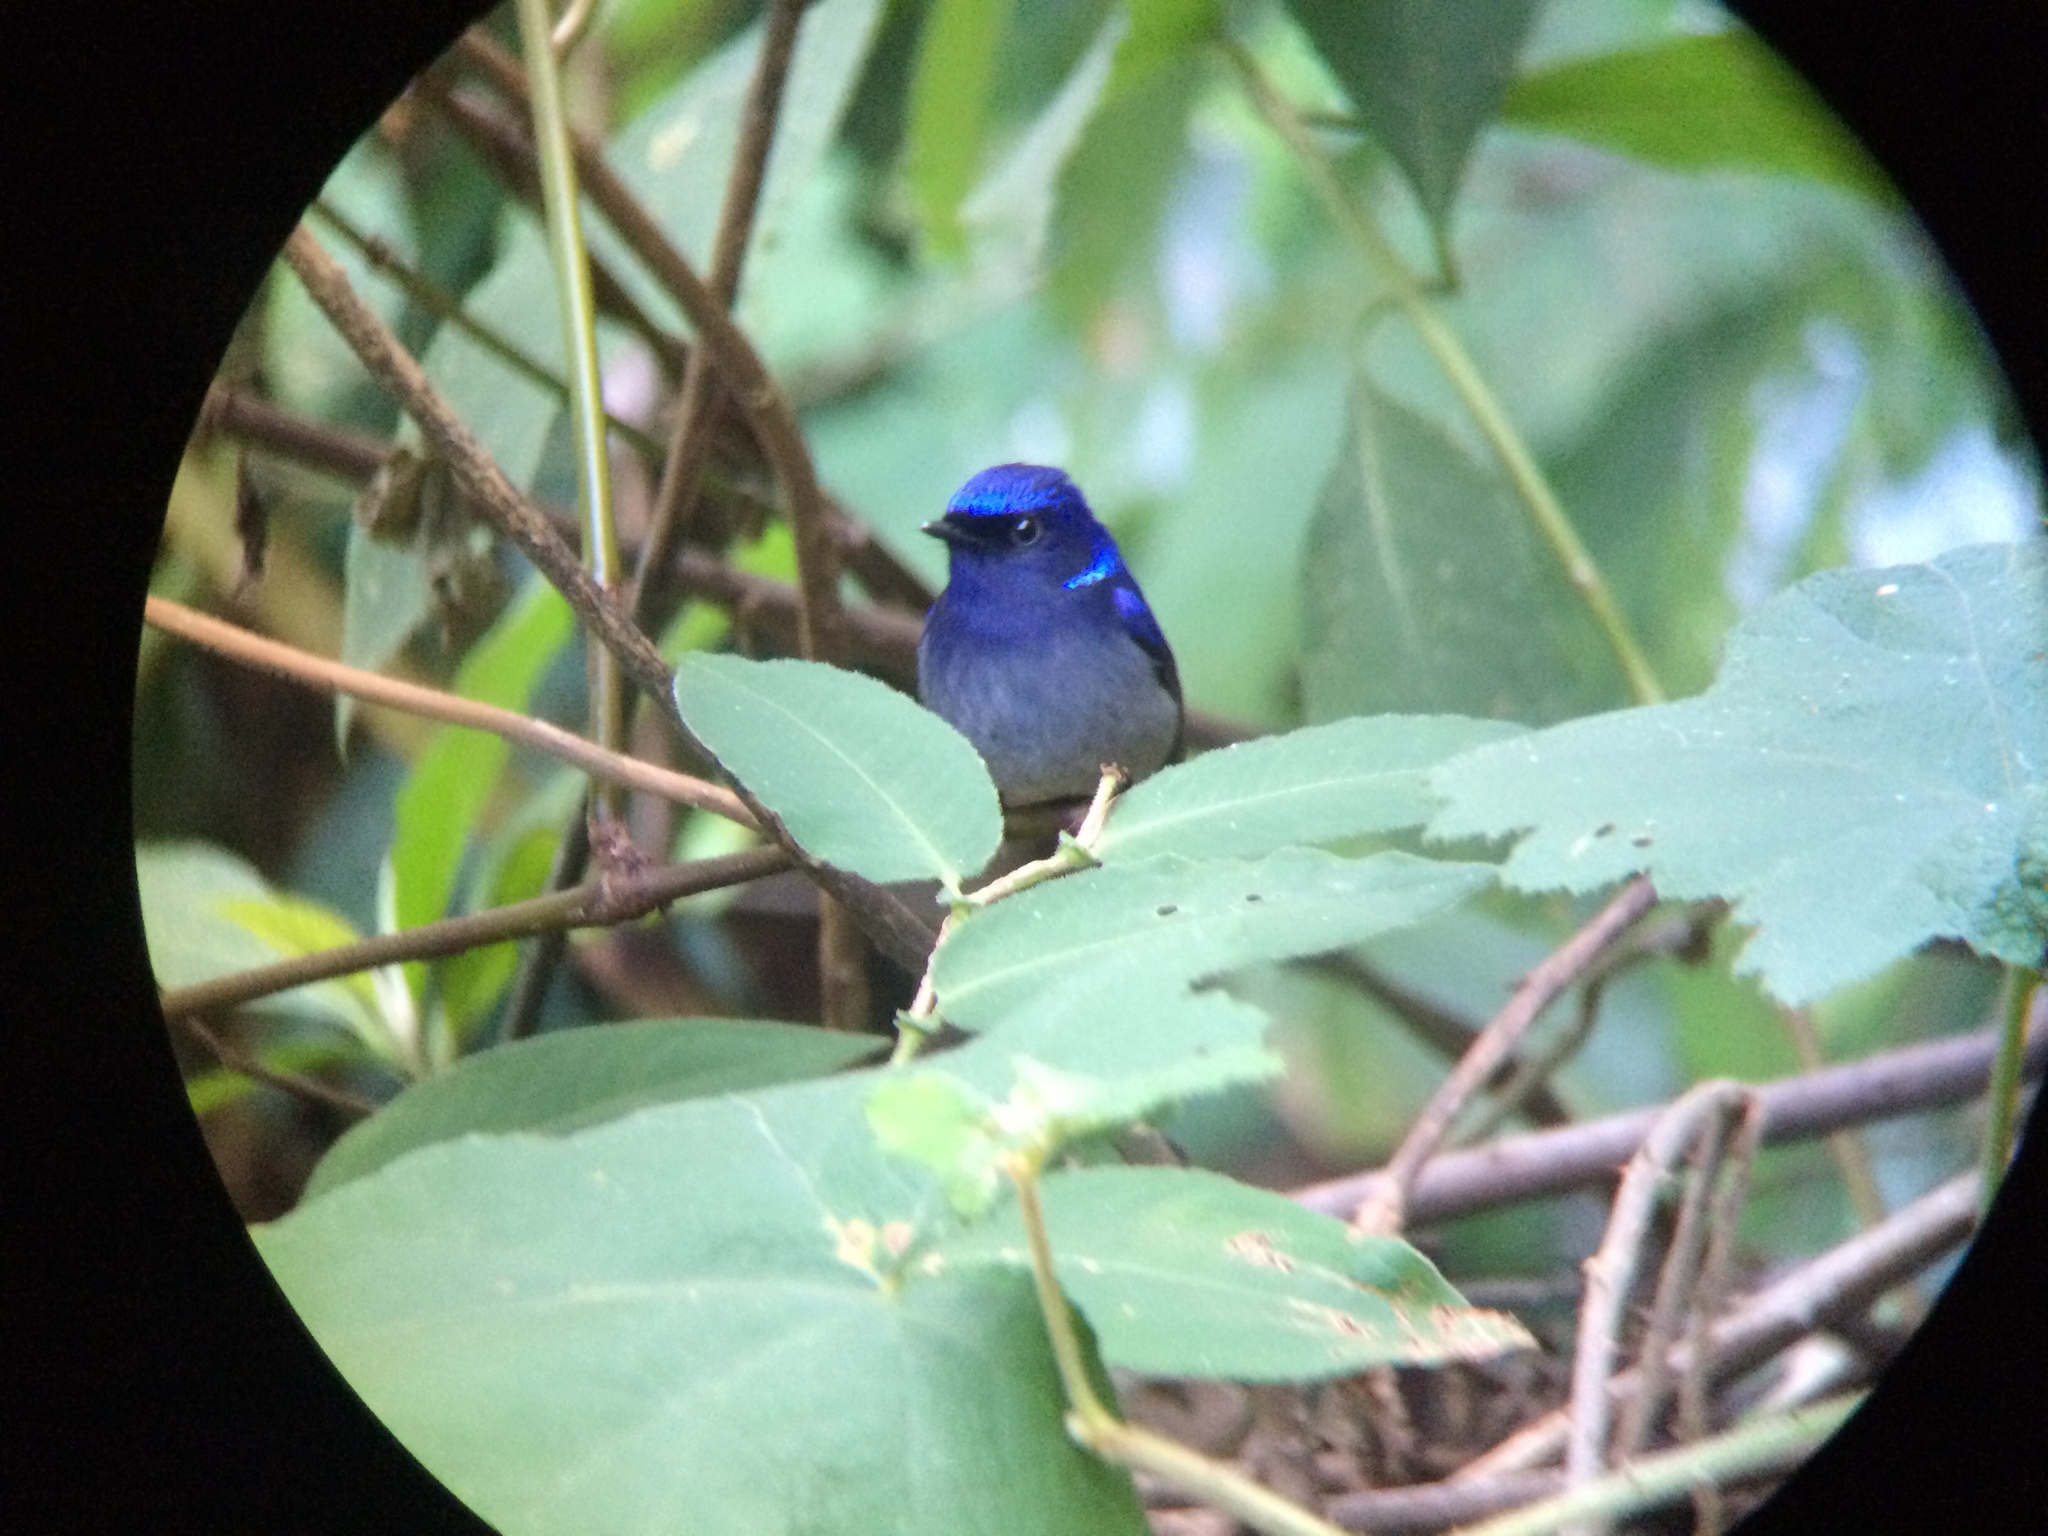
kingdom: Animalia
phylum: Chordata
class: Aves
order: Passeriformes
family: Muscicapidae
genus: Niltava
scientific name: Niltava macgrigoriae
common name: Small niltava
